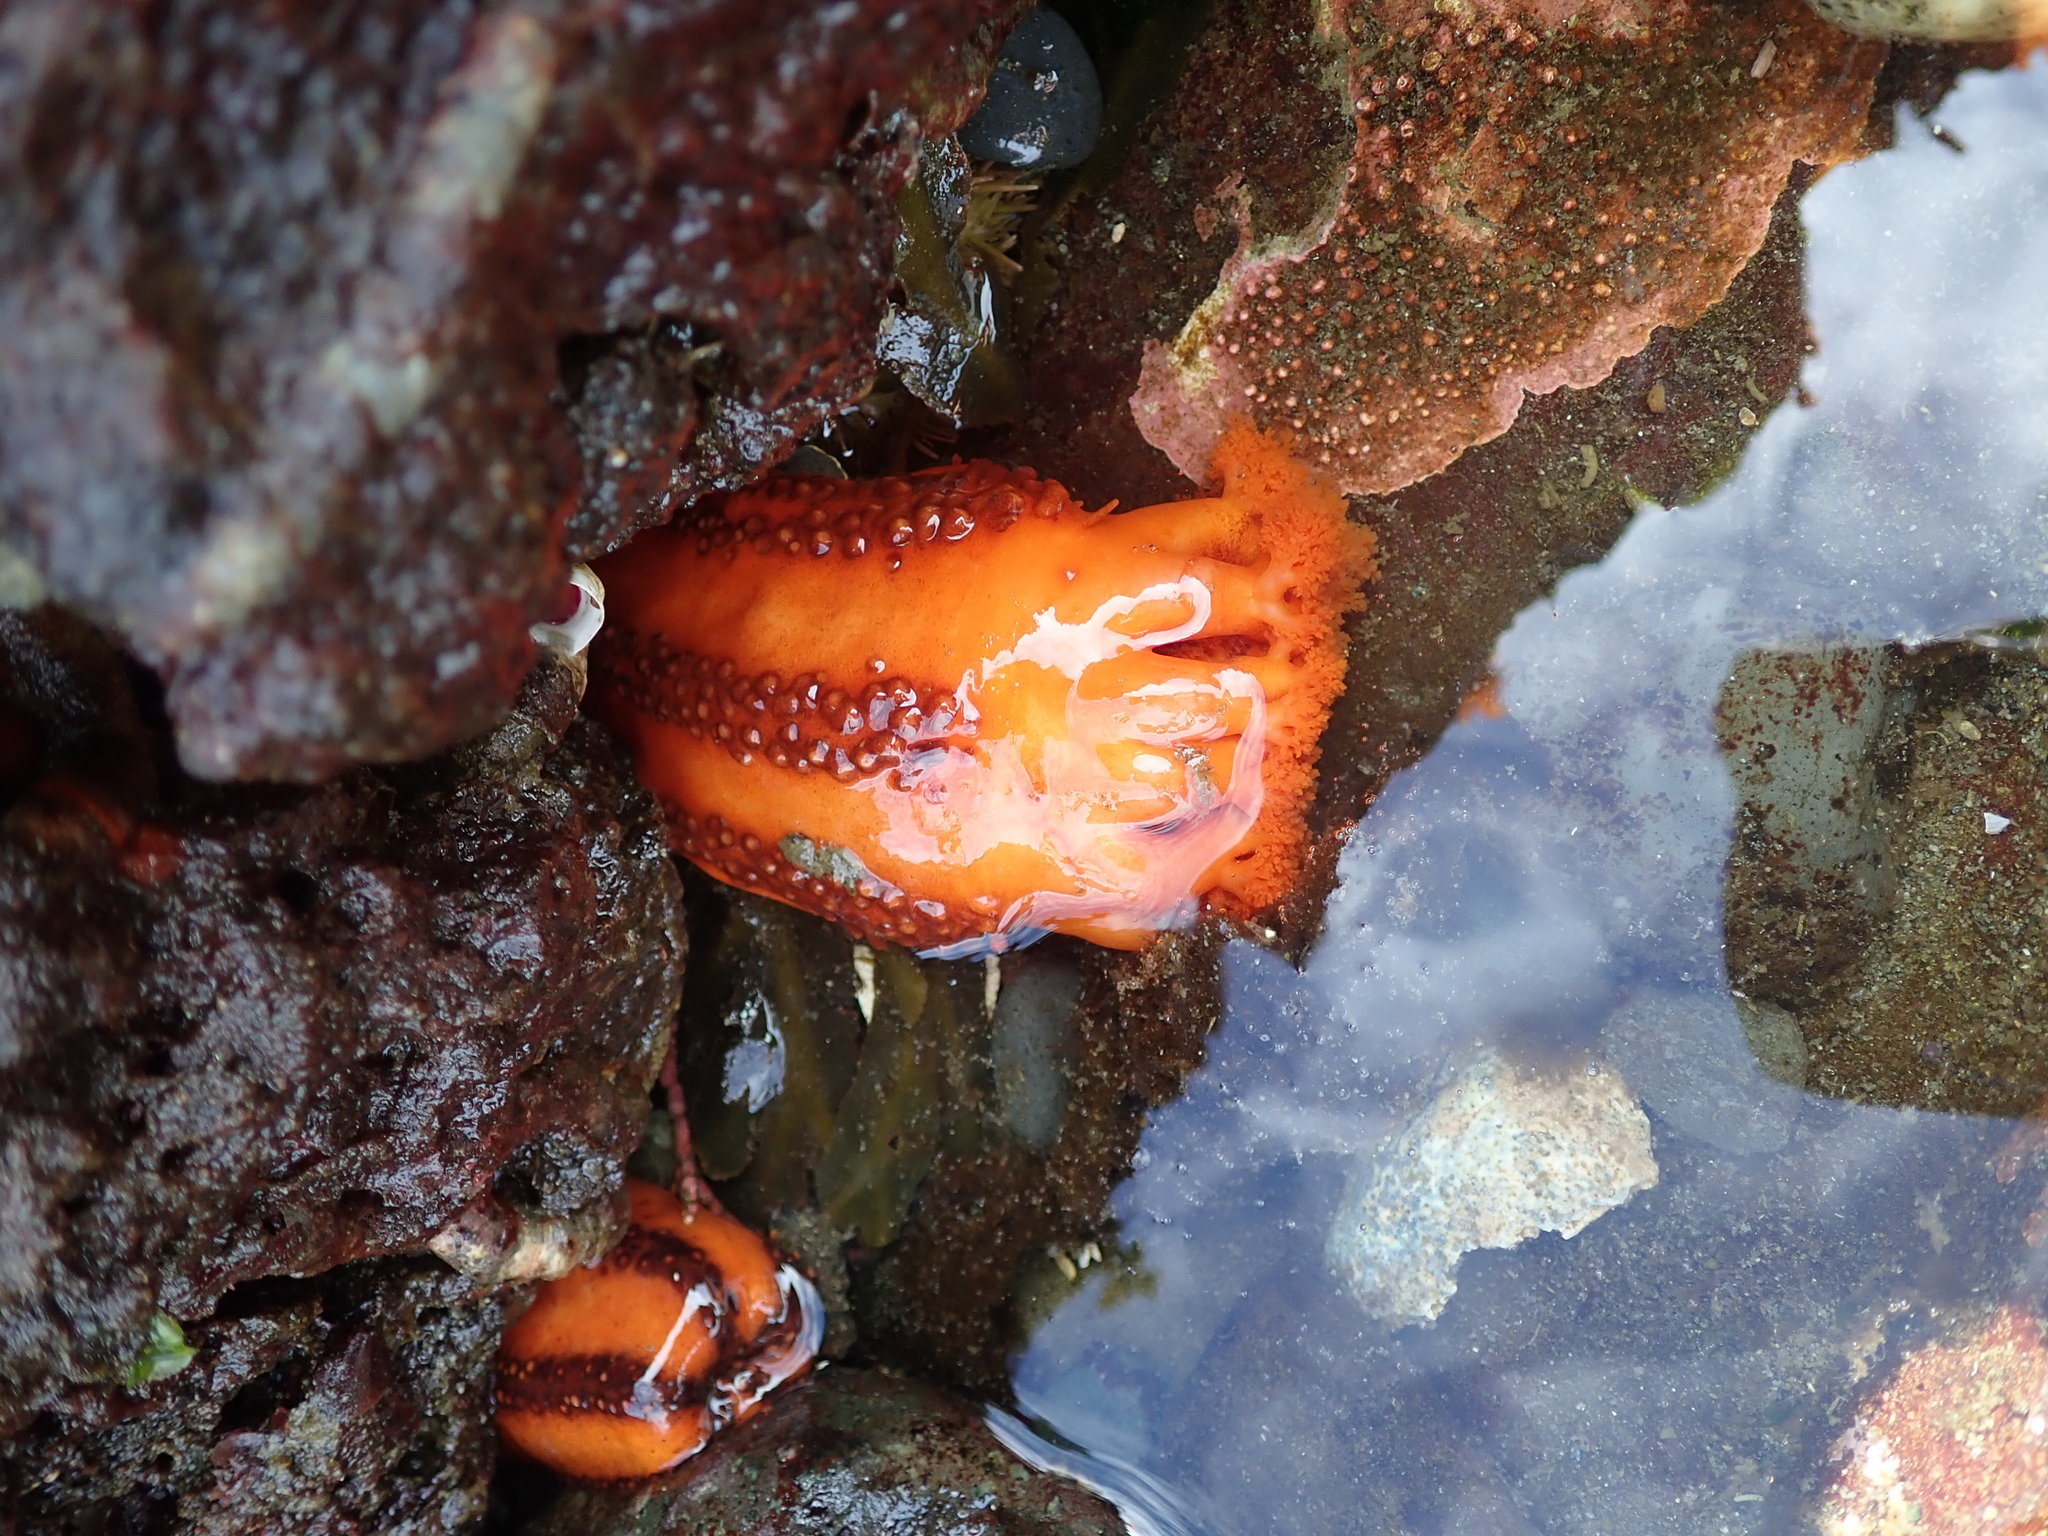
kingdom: Animalia
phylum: Echinodermata
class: Holothuroidea
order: Dendrochirotida
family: Cucumariidae
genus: Cucumaria
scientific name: Cucumaria miniata
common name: Orange sea cucumber
